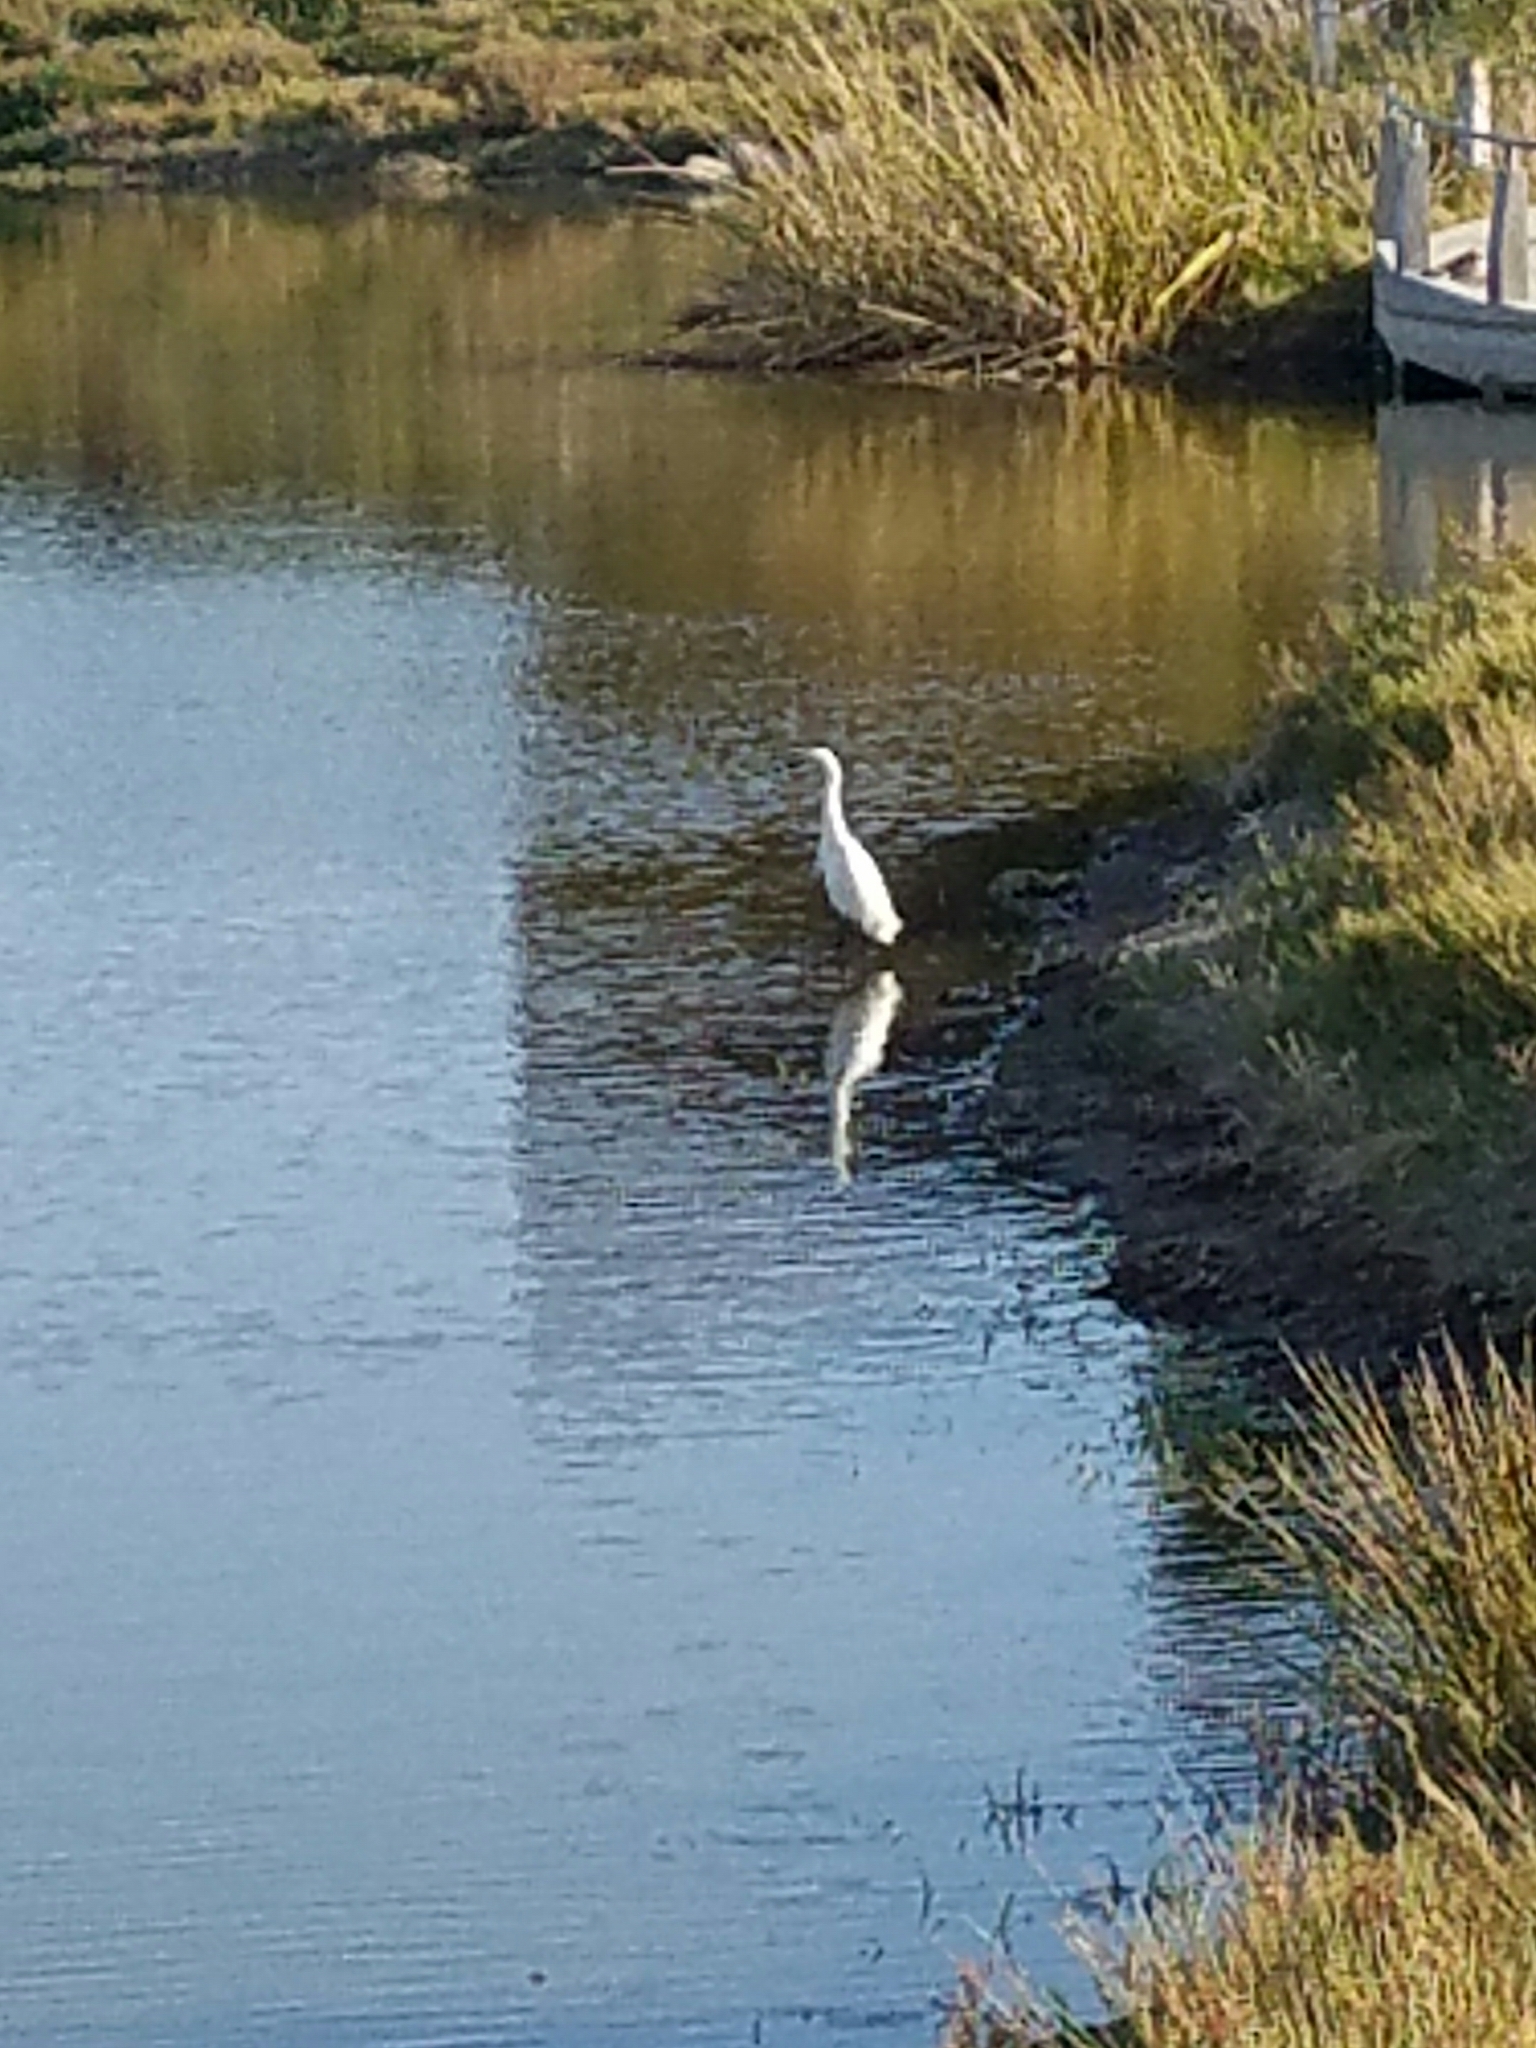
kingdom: Animalia
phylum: Chordata
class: Aves
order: Pelecaniformes
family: Ardeidae
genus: Ardea
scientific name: Ardea alba
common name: Great egret
